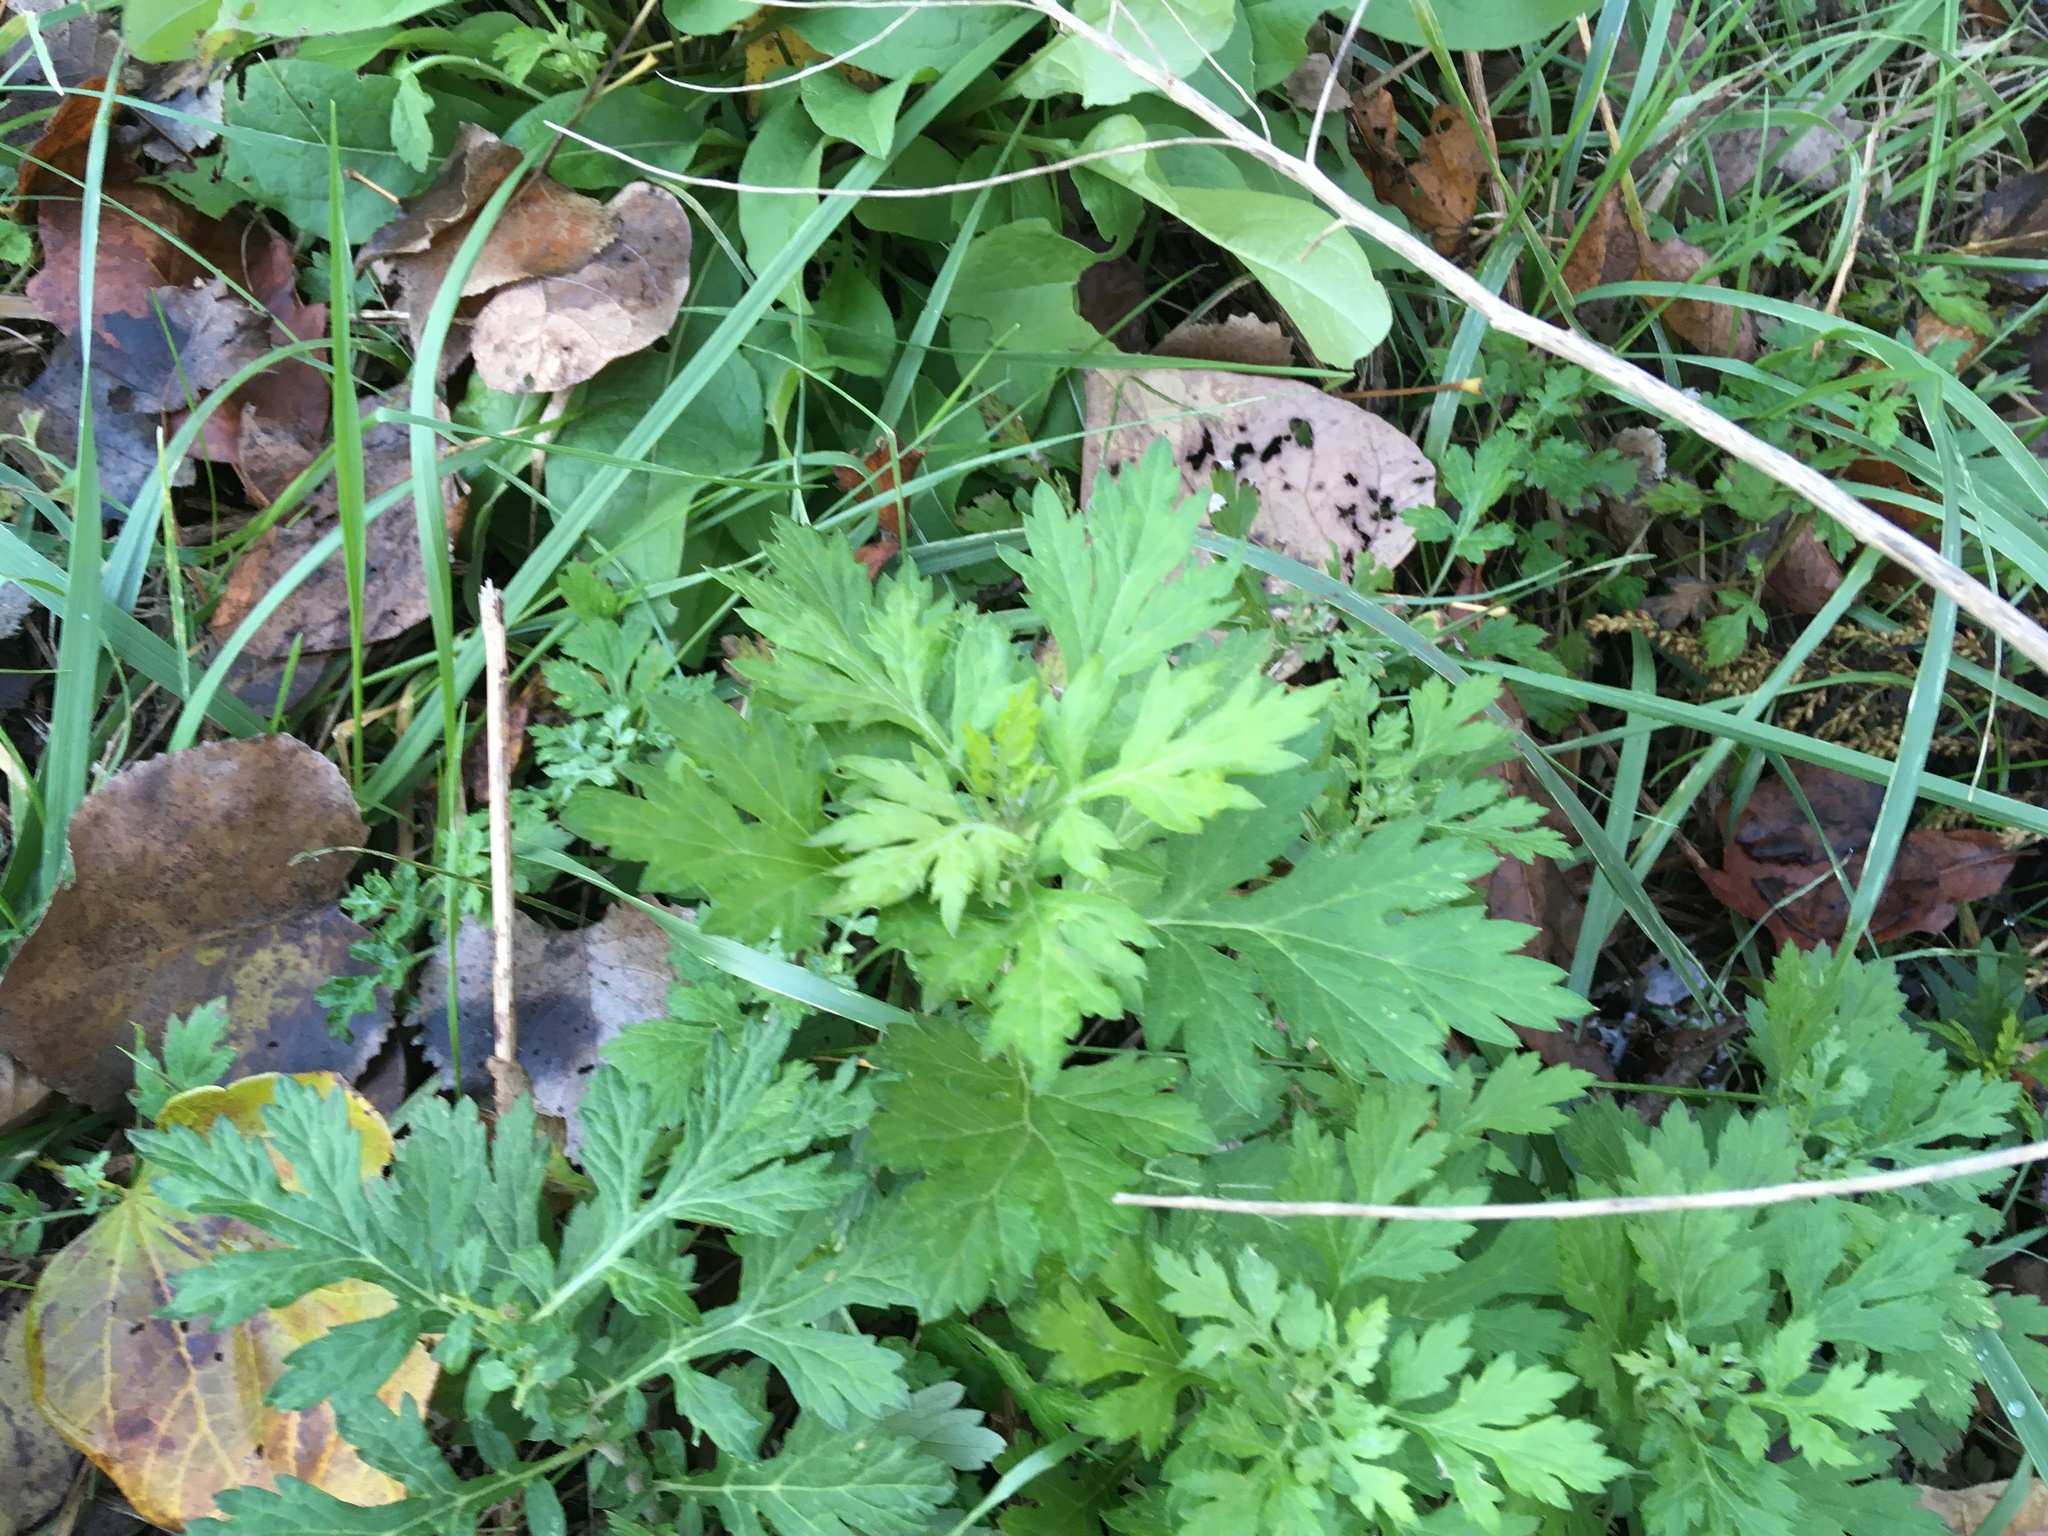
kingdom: Plantae
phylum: Tracheophyta
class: Magnoliopsida
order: Asterales
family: Asteraceae
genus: Artemisia
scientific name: Artemisia vulgaris
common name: Mugwort
